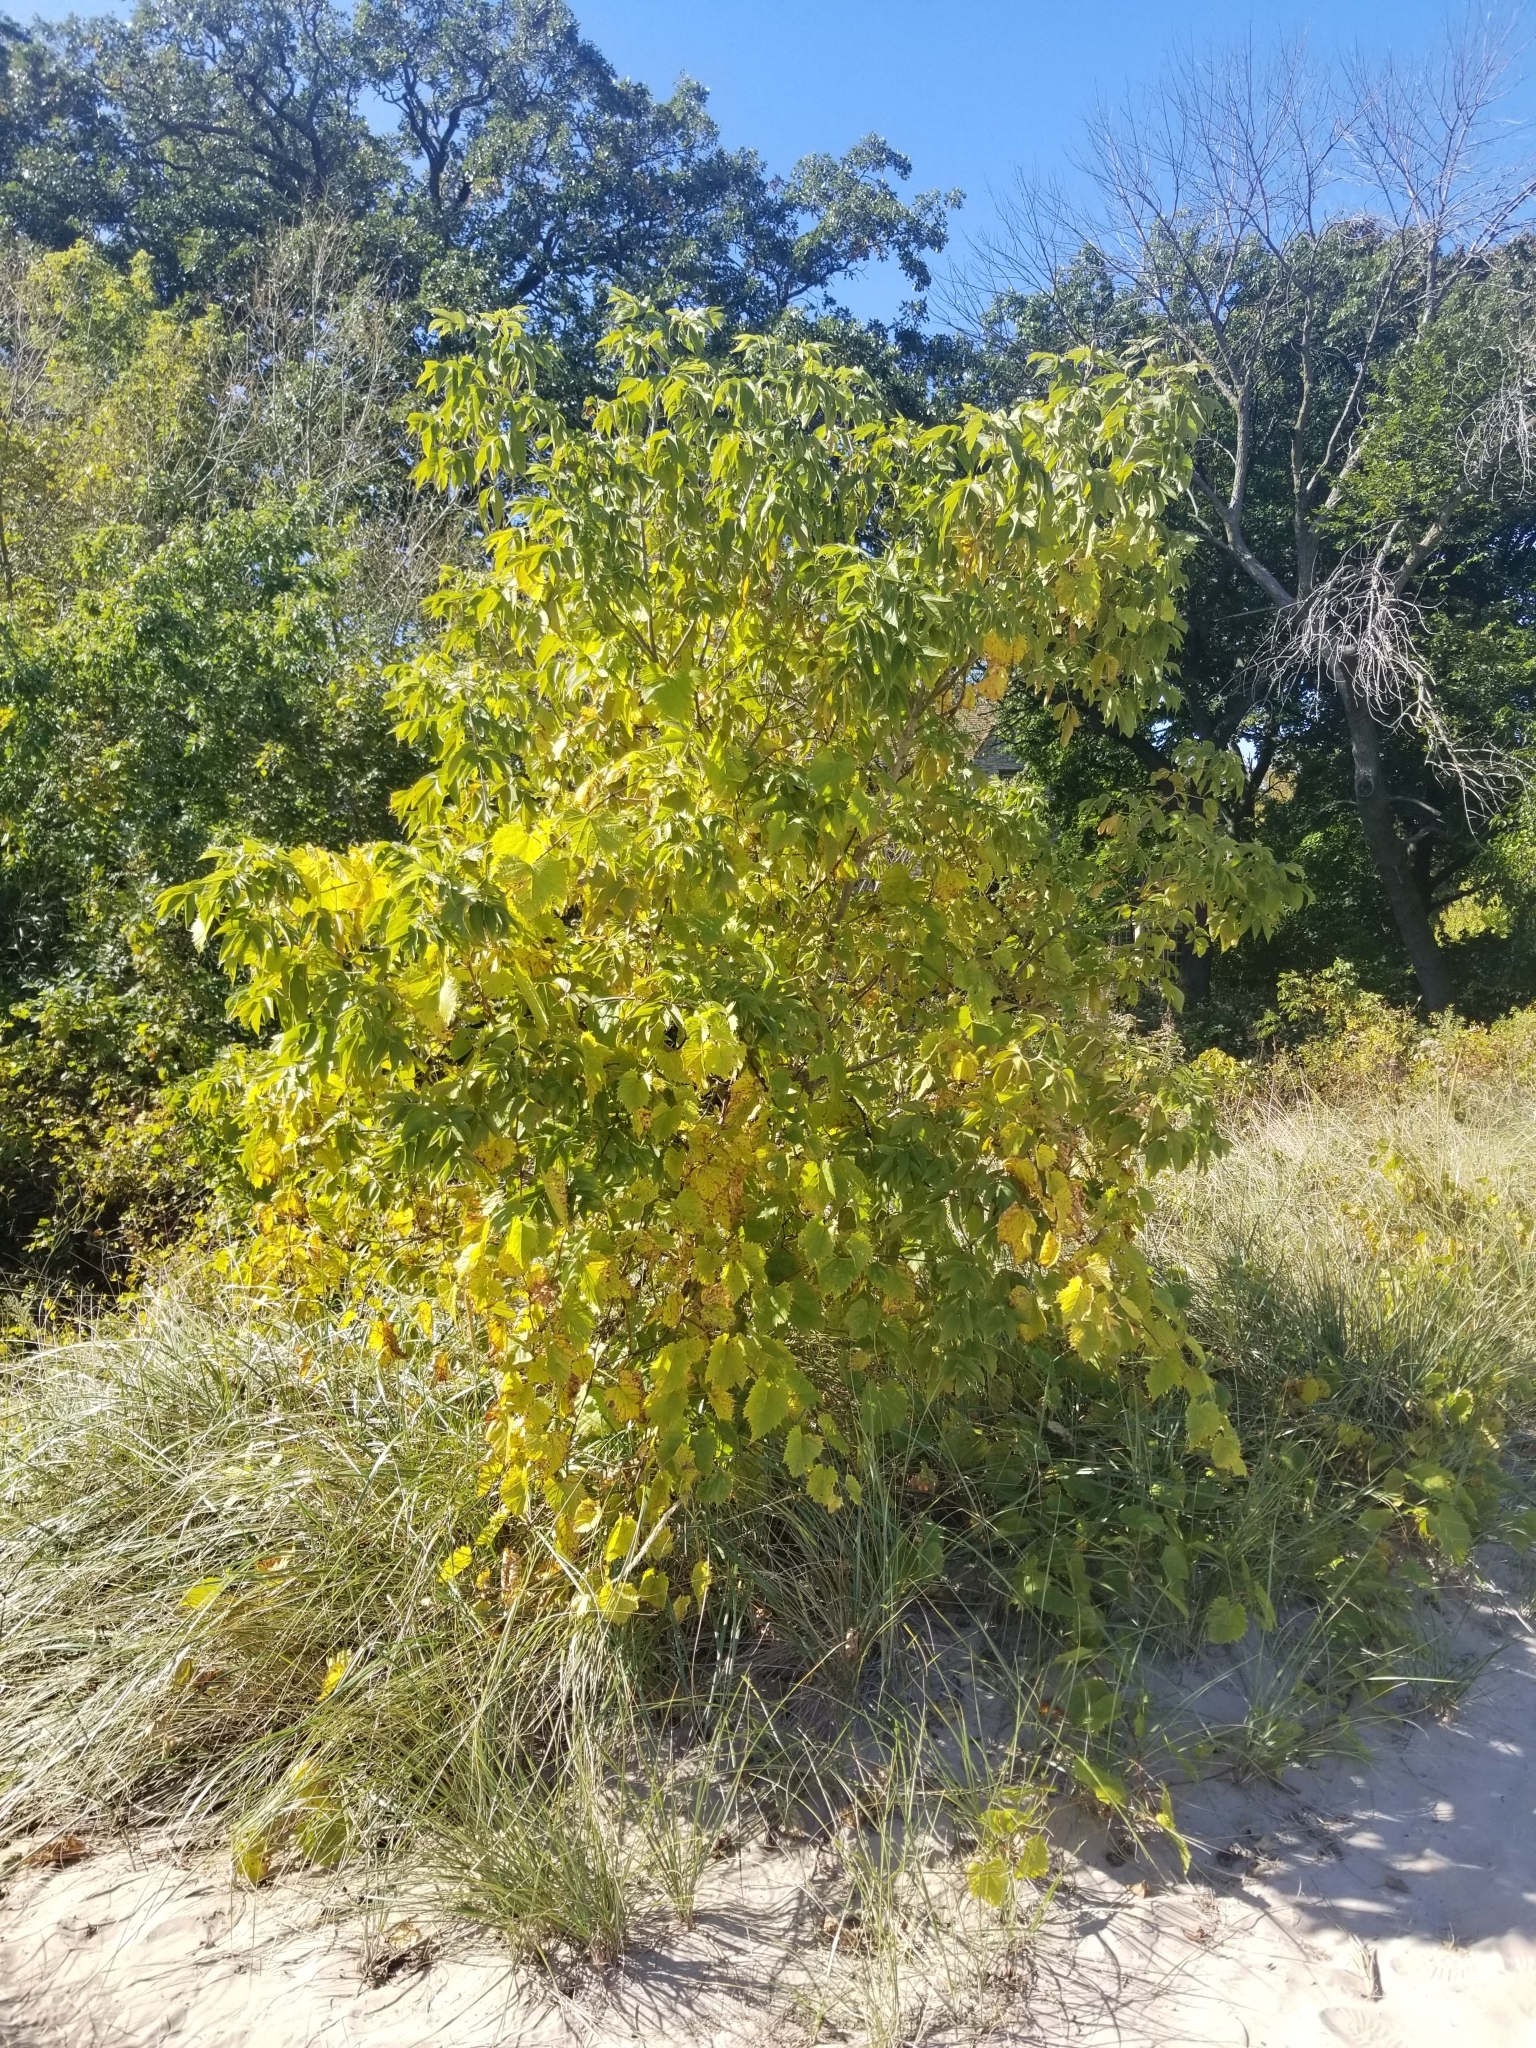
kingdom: Plantae
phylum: Tracheophyta
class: Magnoliopsida
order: Vitales
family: Vitaceae
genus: Vitis
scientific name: Vitis riparia
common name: Frost grape
